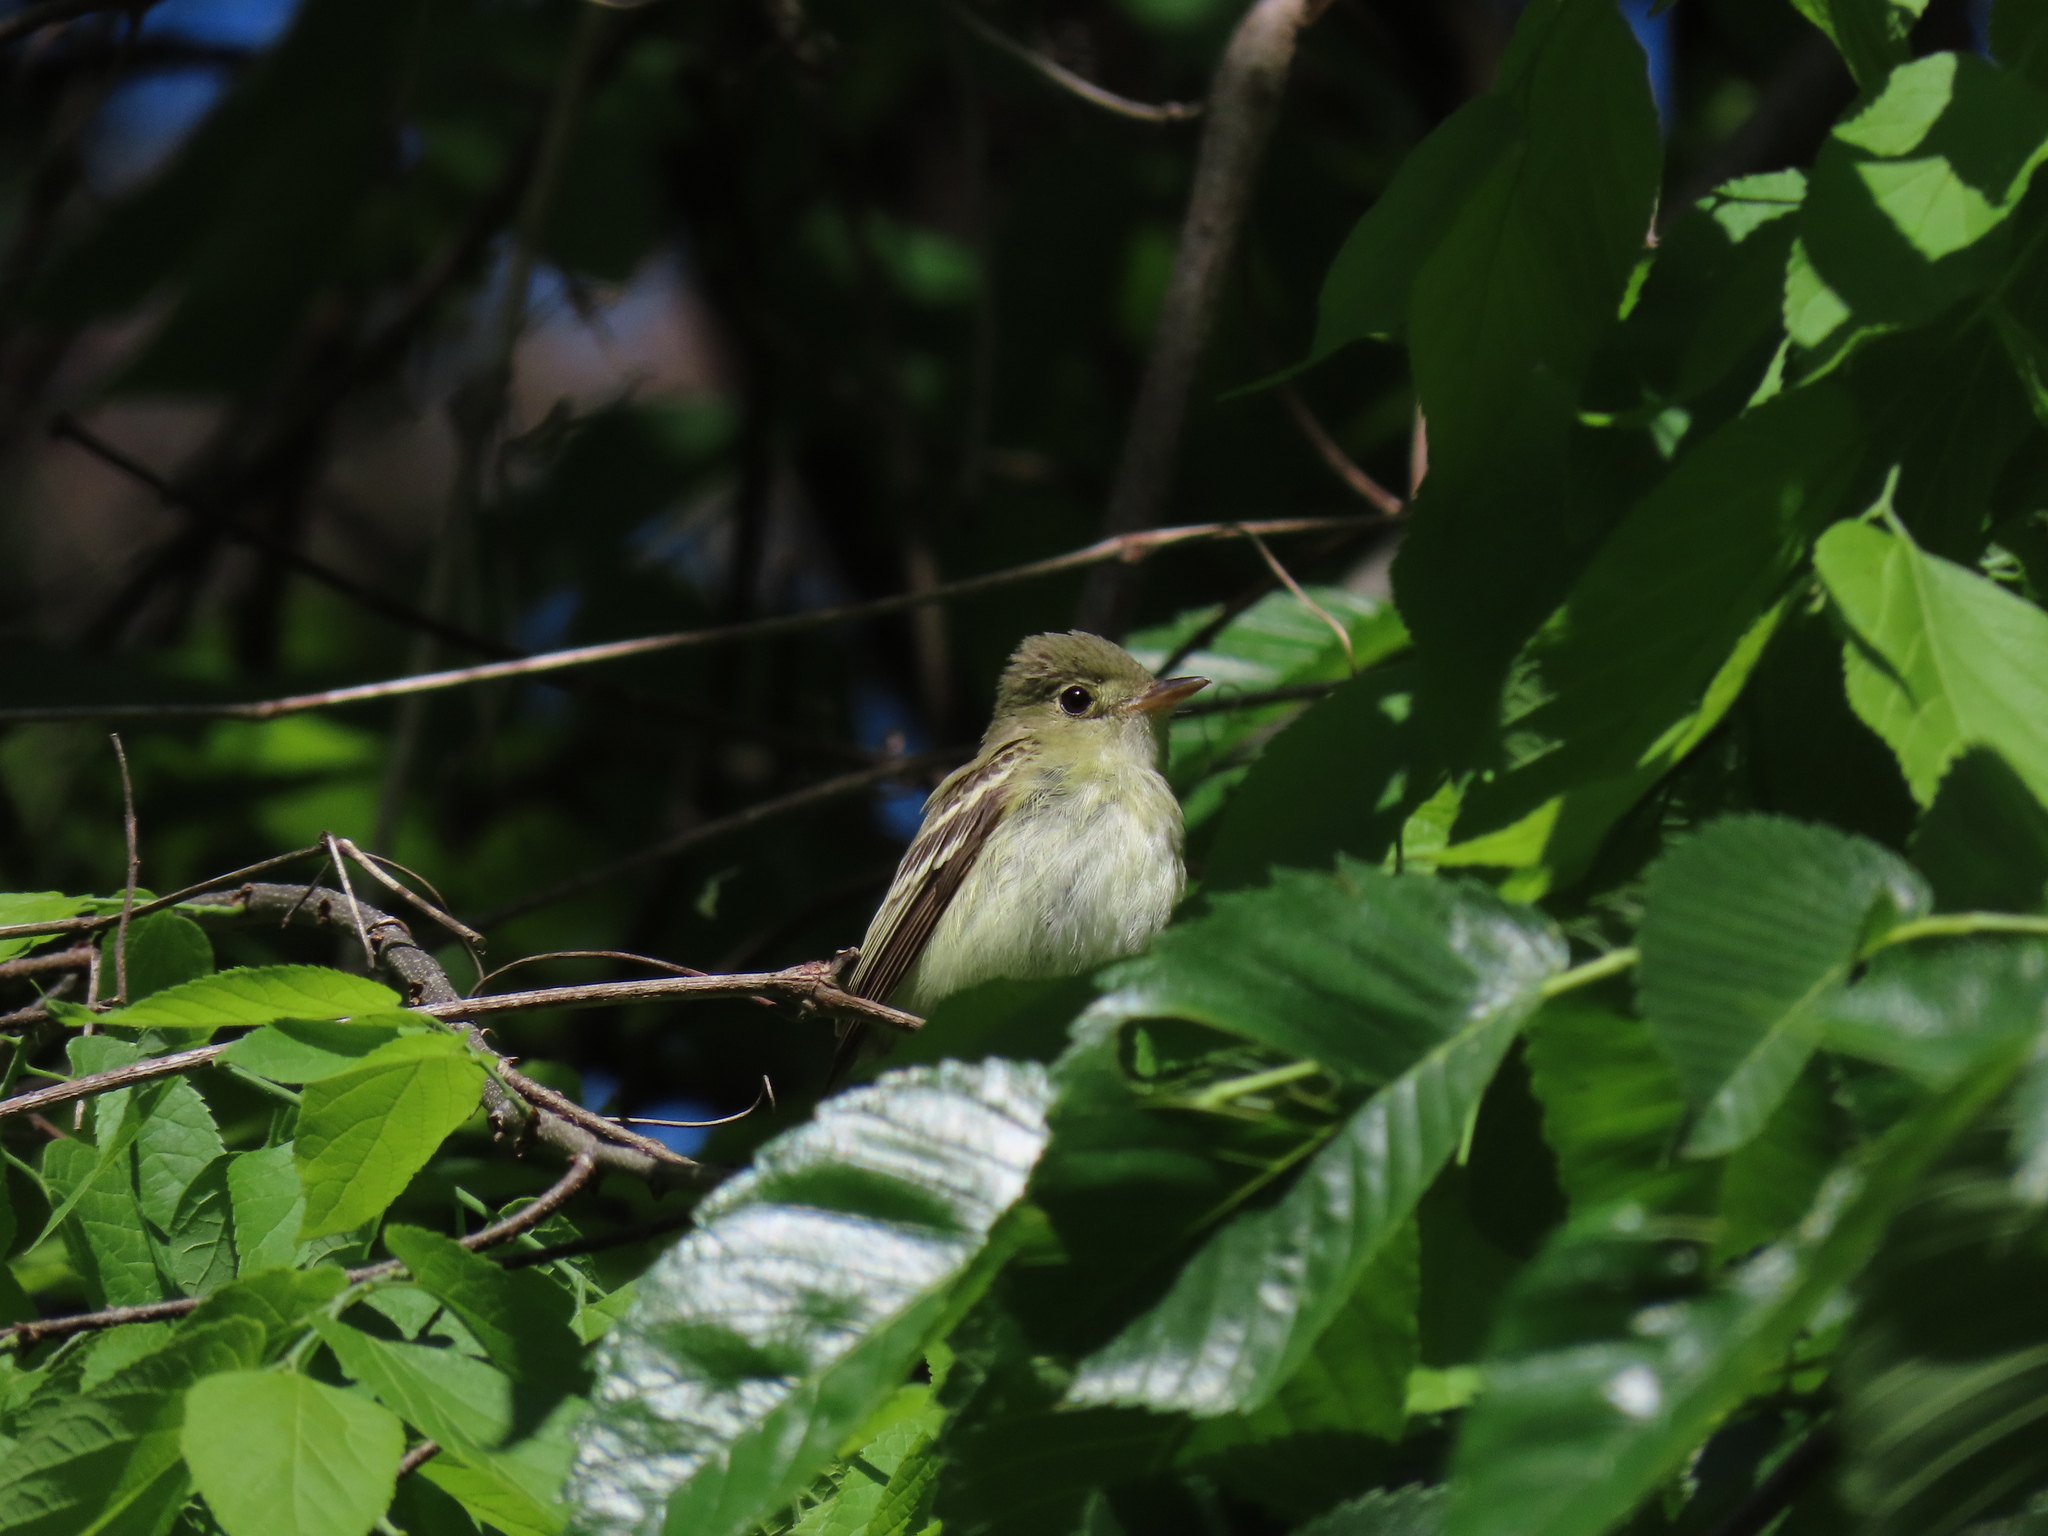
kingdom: Animalia
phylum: Chordata
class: Aves
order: Passeriformes
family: Tyrannidae
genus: Empidonax
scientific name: Empidonax virescens
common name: Acadian flycatcher
